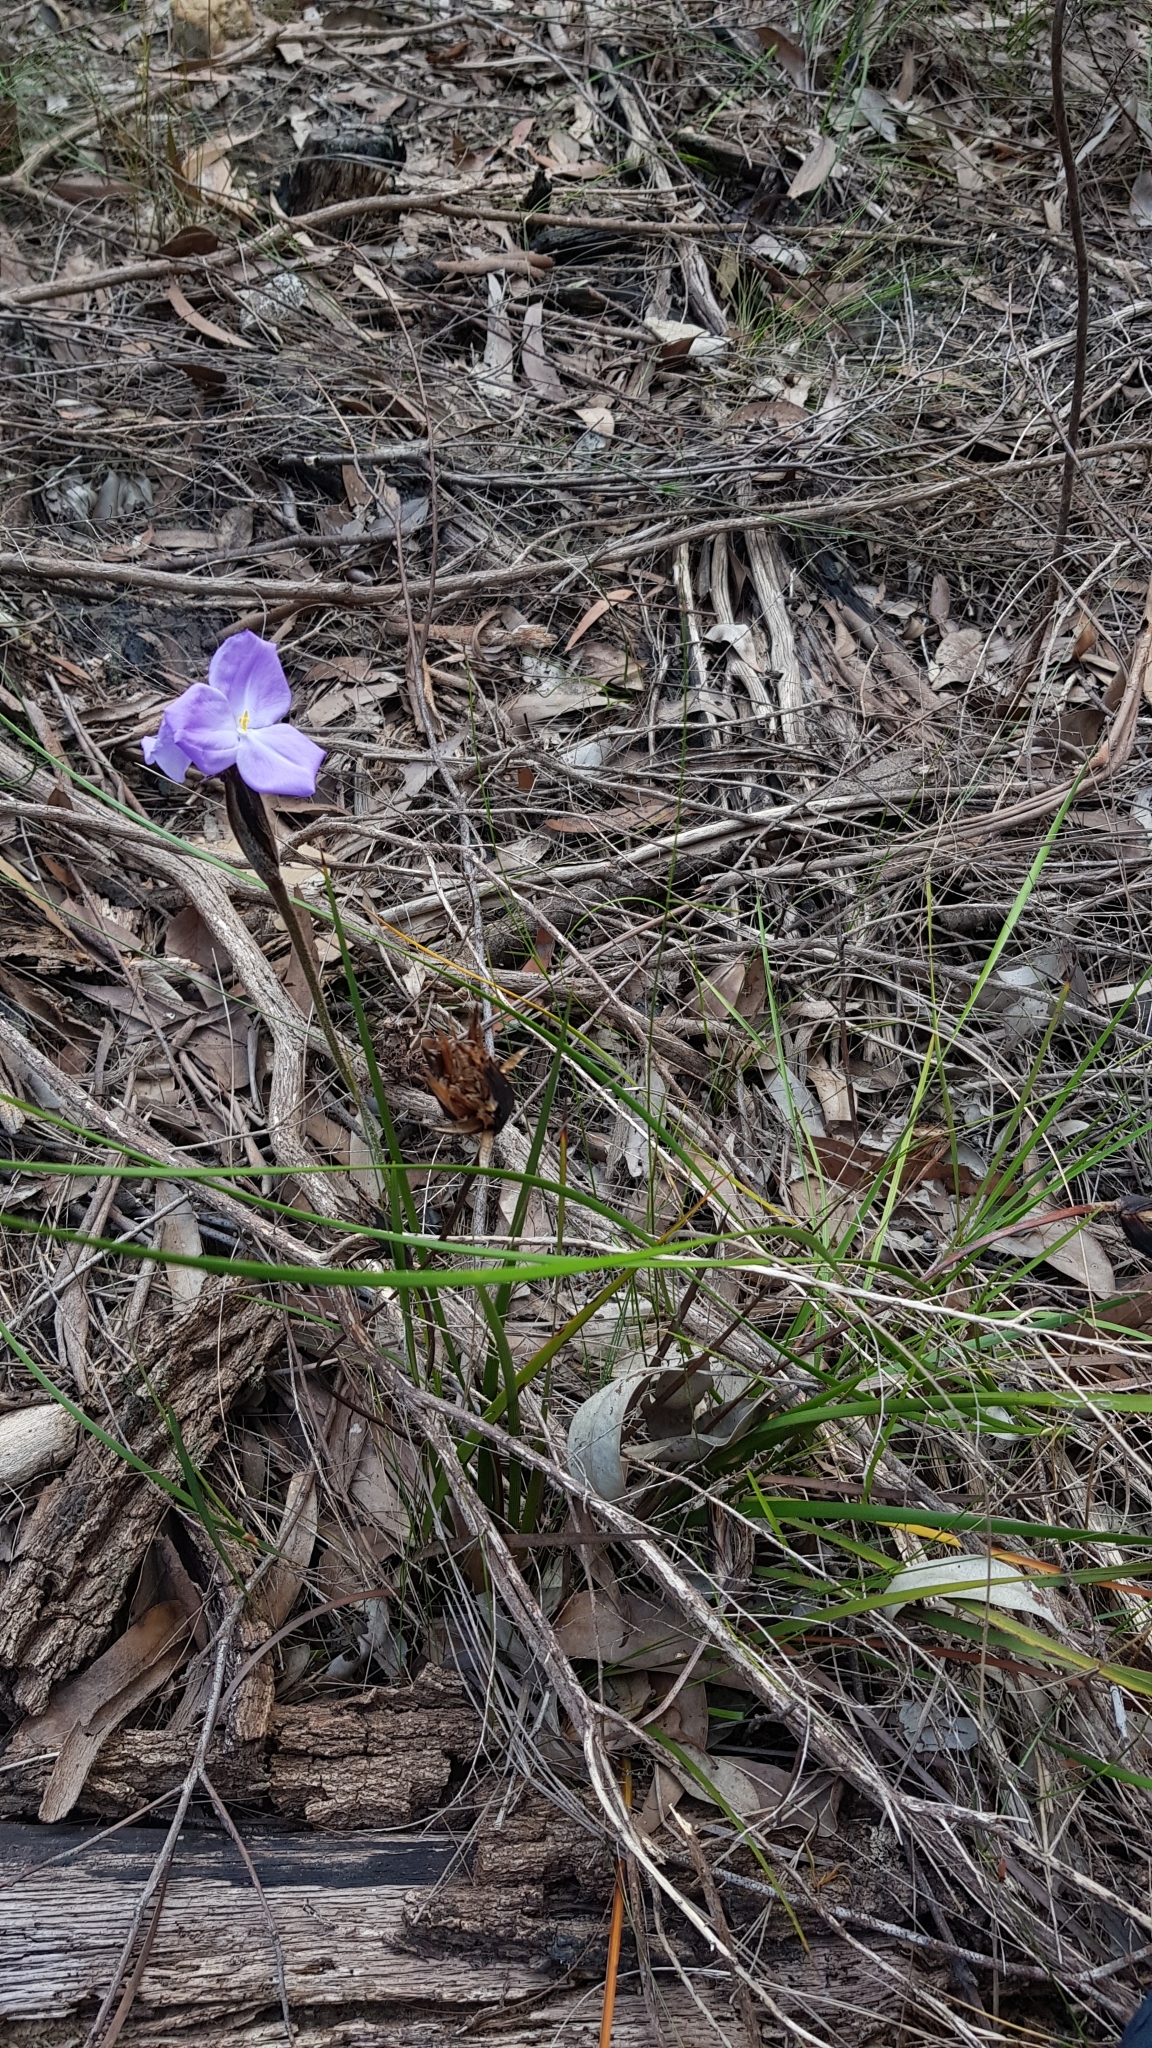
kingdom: Plantae
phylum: Tracheophyta
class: Liliopsida
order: Asparagales
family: Iridaceae
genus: Patersonia
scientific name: Patersonia sericea
